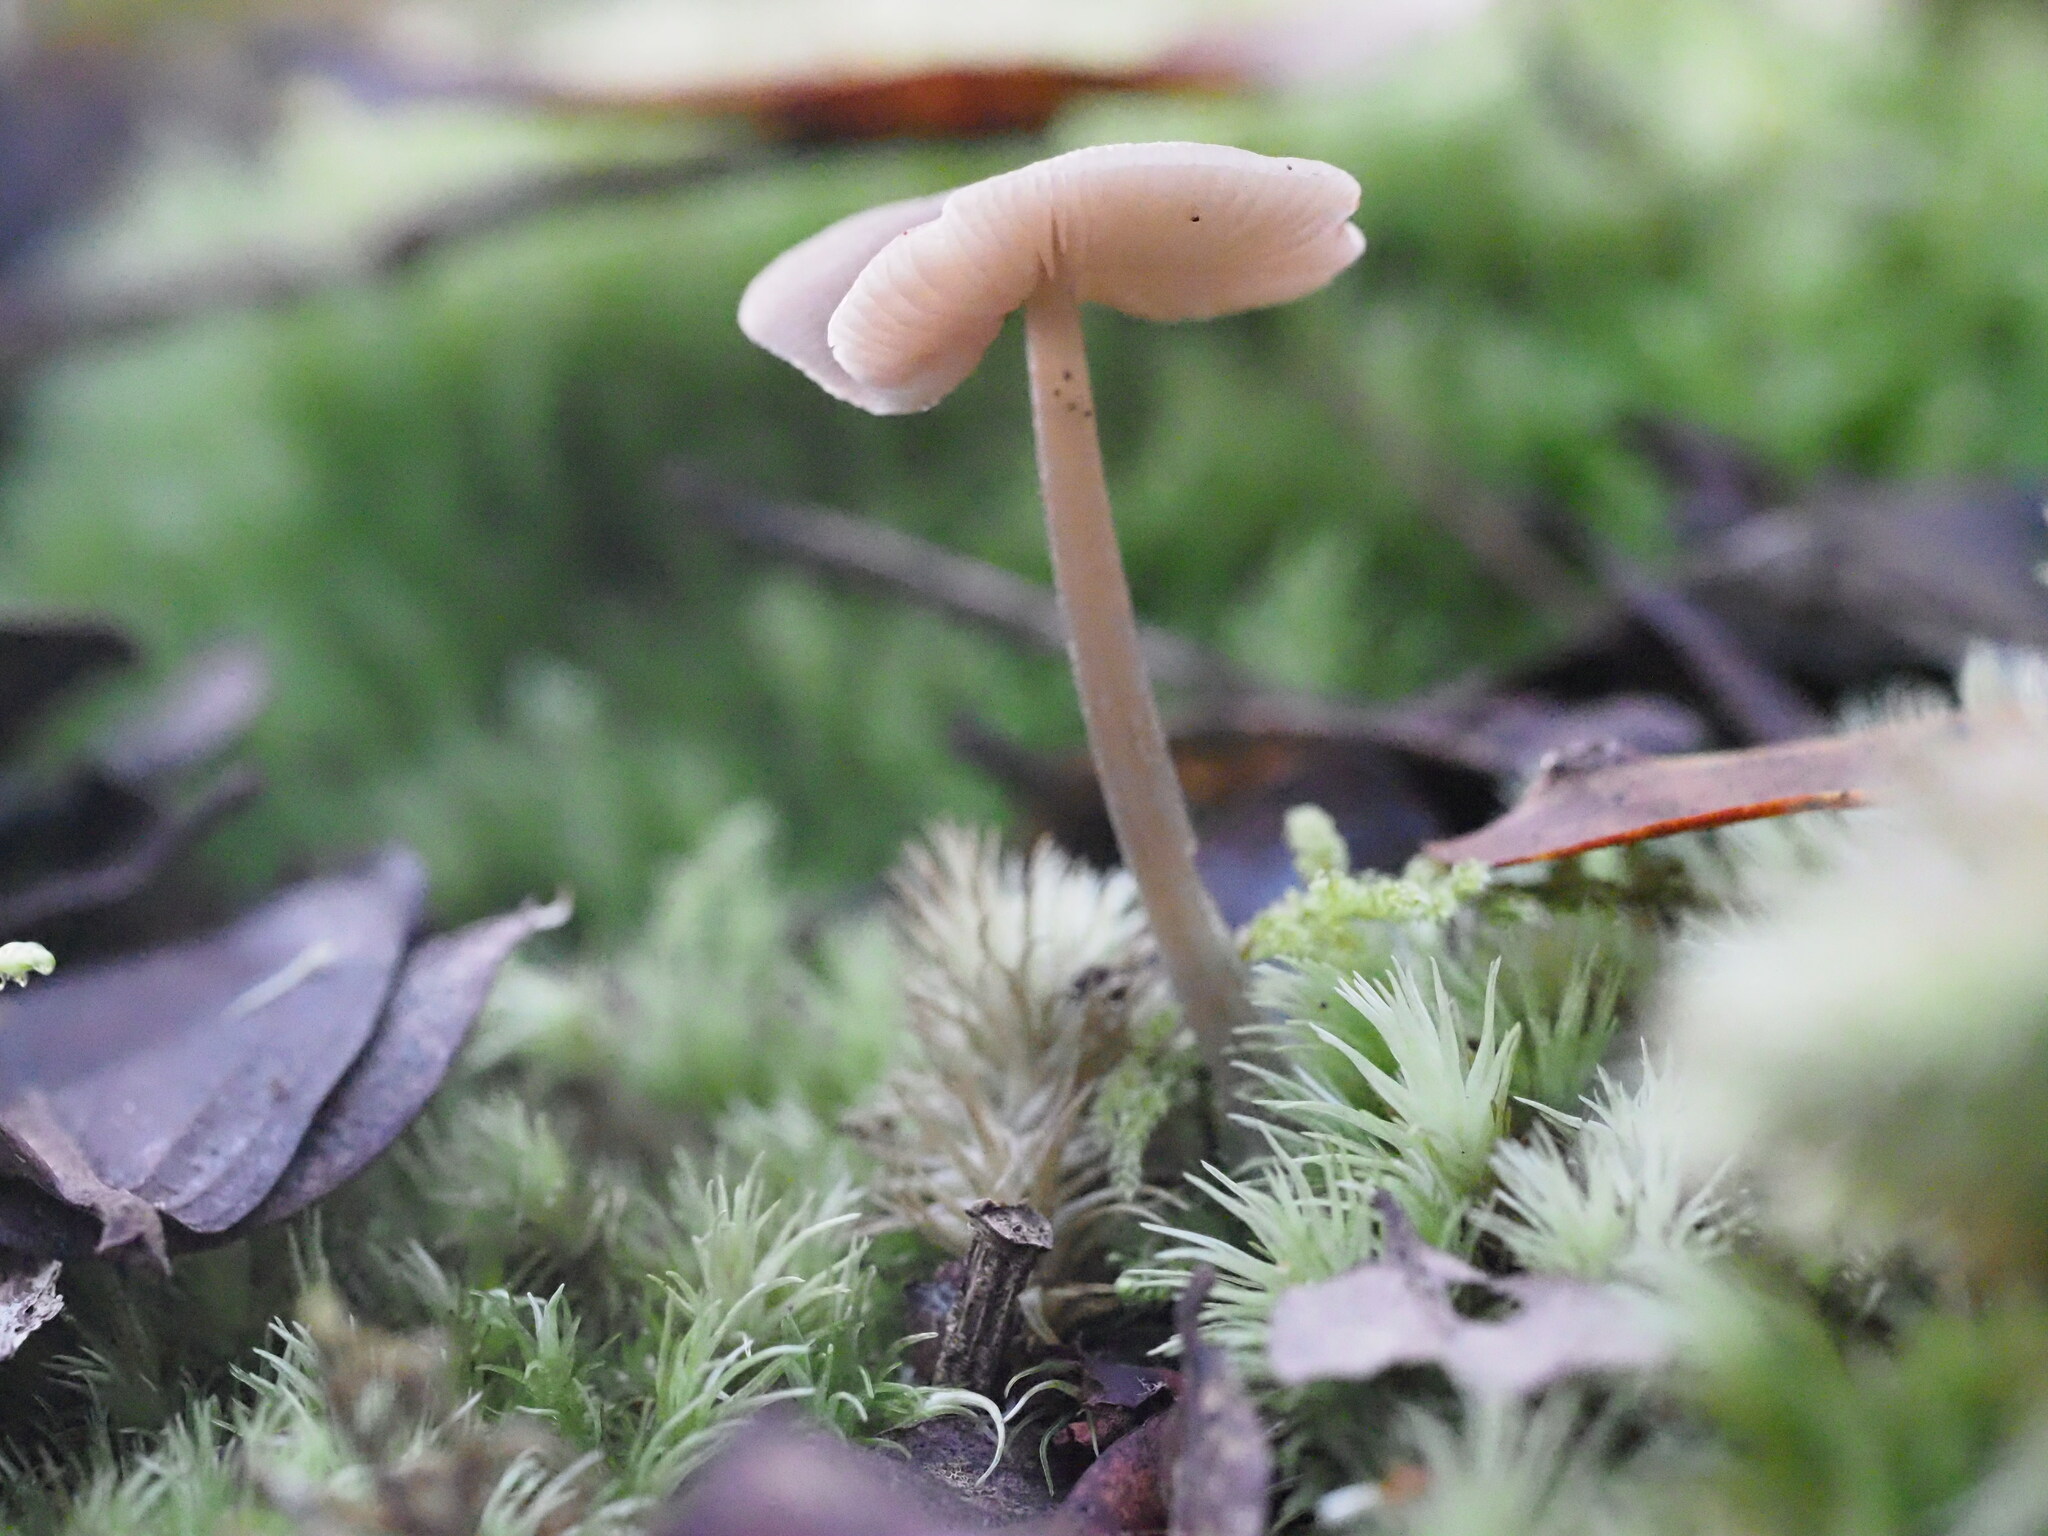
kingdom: Fungi
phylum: Basidiomycota
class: Agaricomycetes
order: Agaricales
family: Entolomataceae
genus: Entoloma
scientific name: Entoloma conferendum
